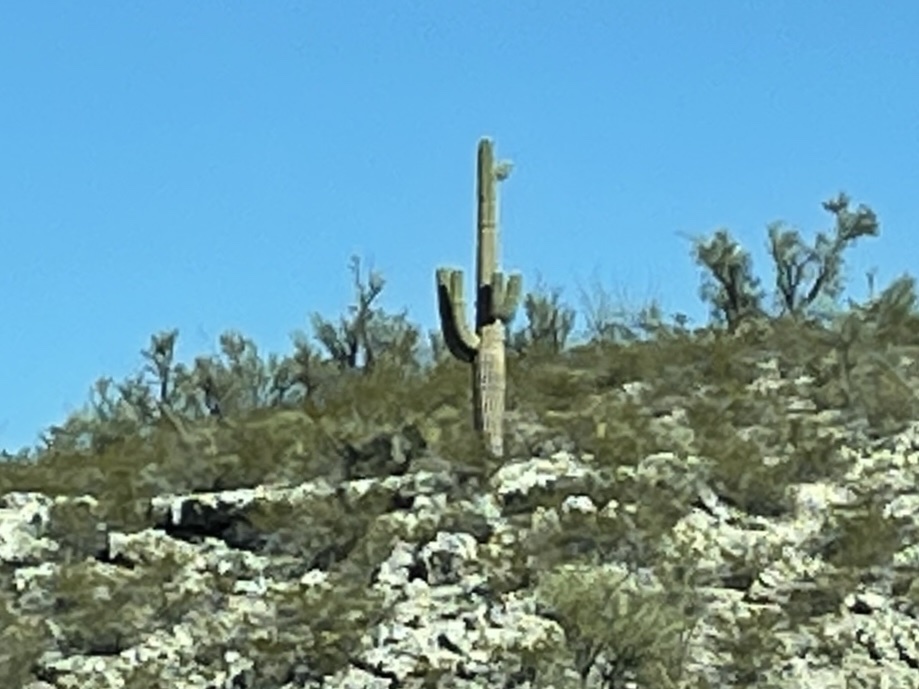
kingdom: Plantae
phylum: Tracheophyta
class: Magnoliopsida
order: Caryophyllales
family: Cactaceae
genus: Carnegiea
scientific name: Carnegiea gigantea
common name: Saguaro
